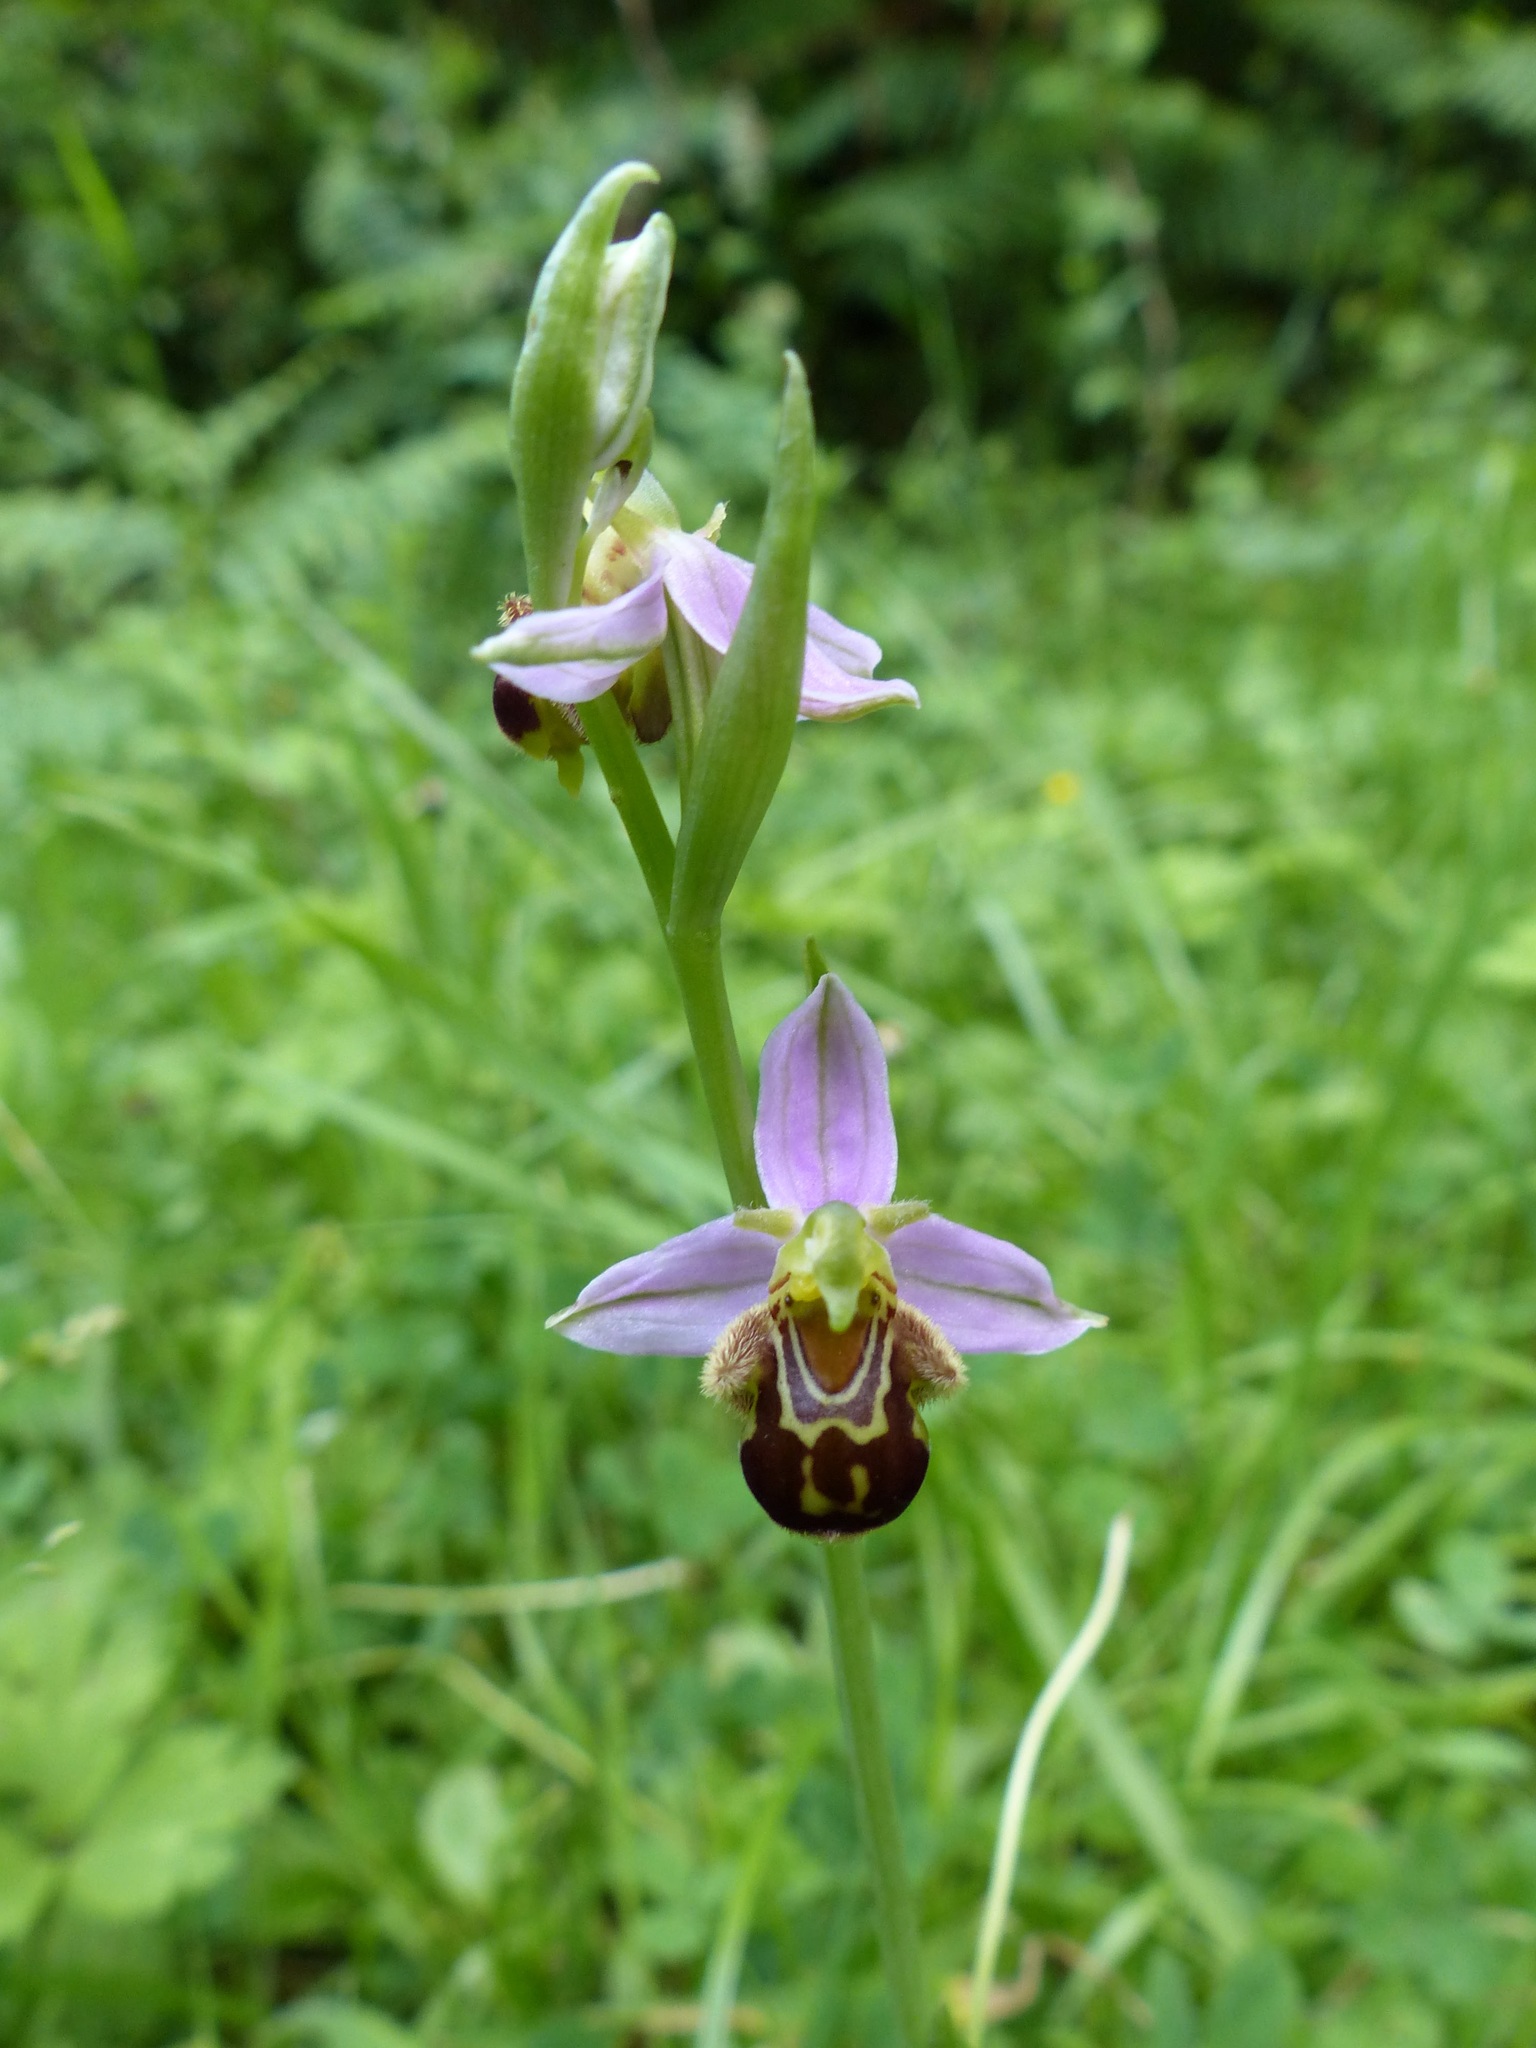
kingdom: Plantae
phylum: Tracheophyta
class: Liliopsida
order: Asparagales
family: Orchidaceae
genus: Ophrys
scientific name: Ophrys apifera
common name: Bee orchid
